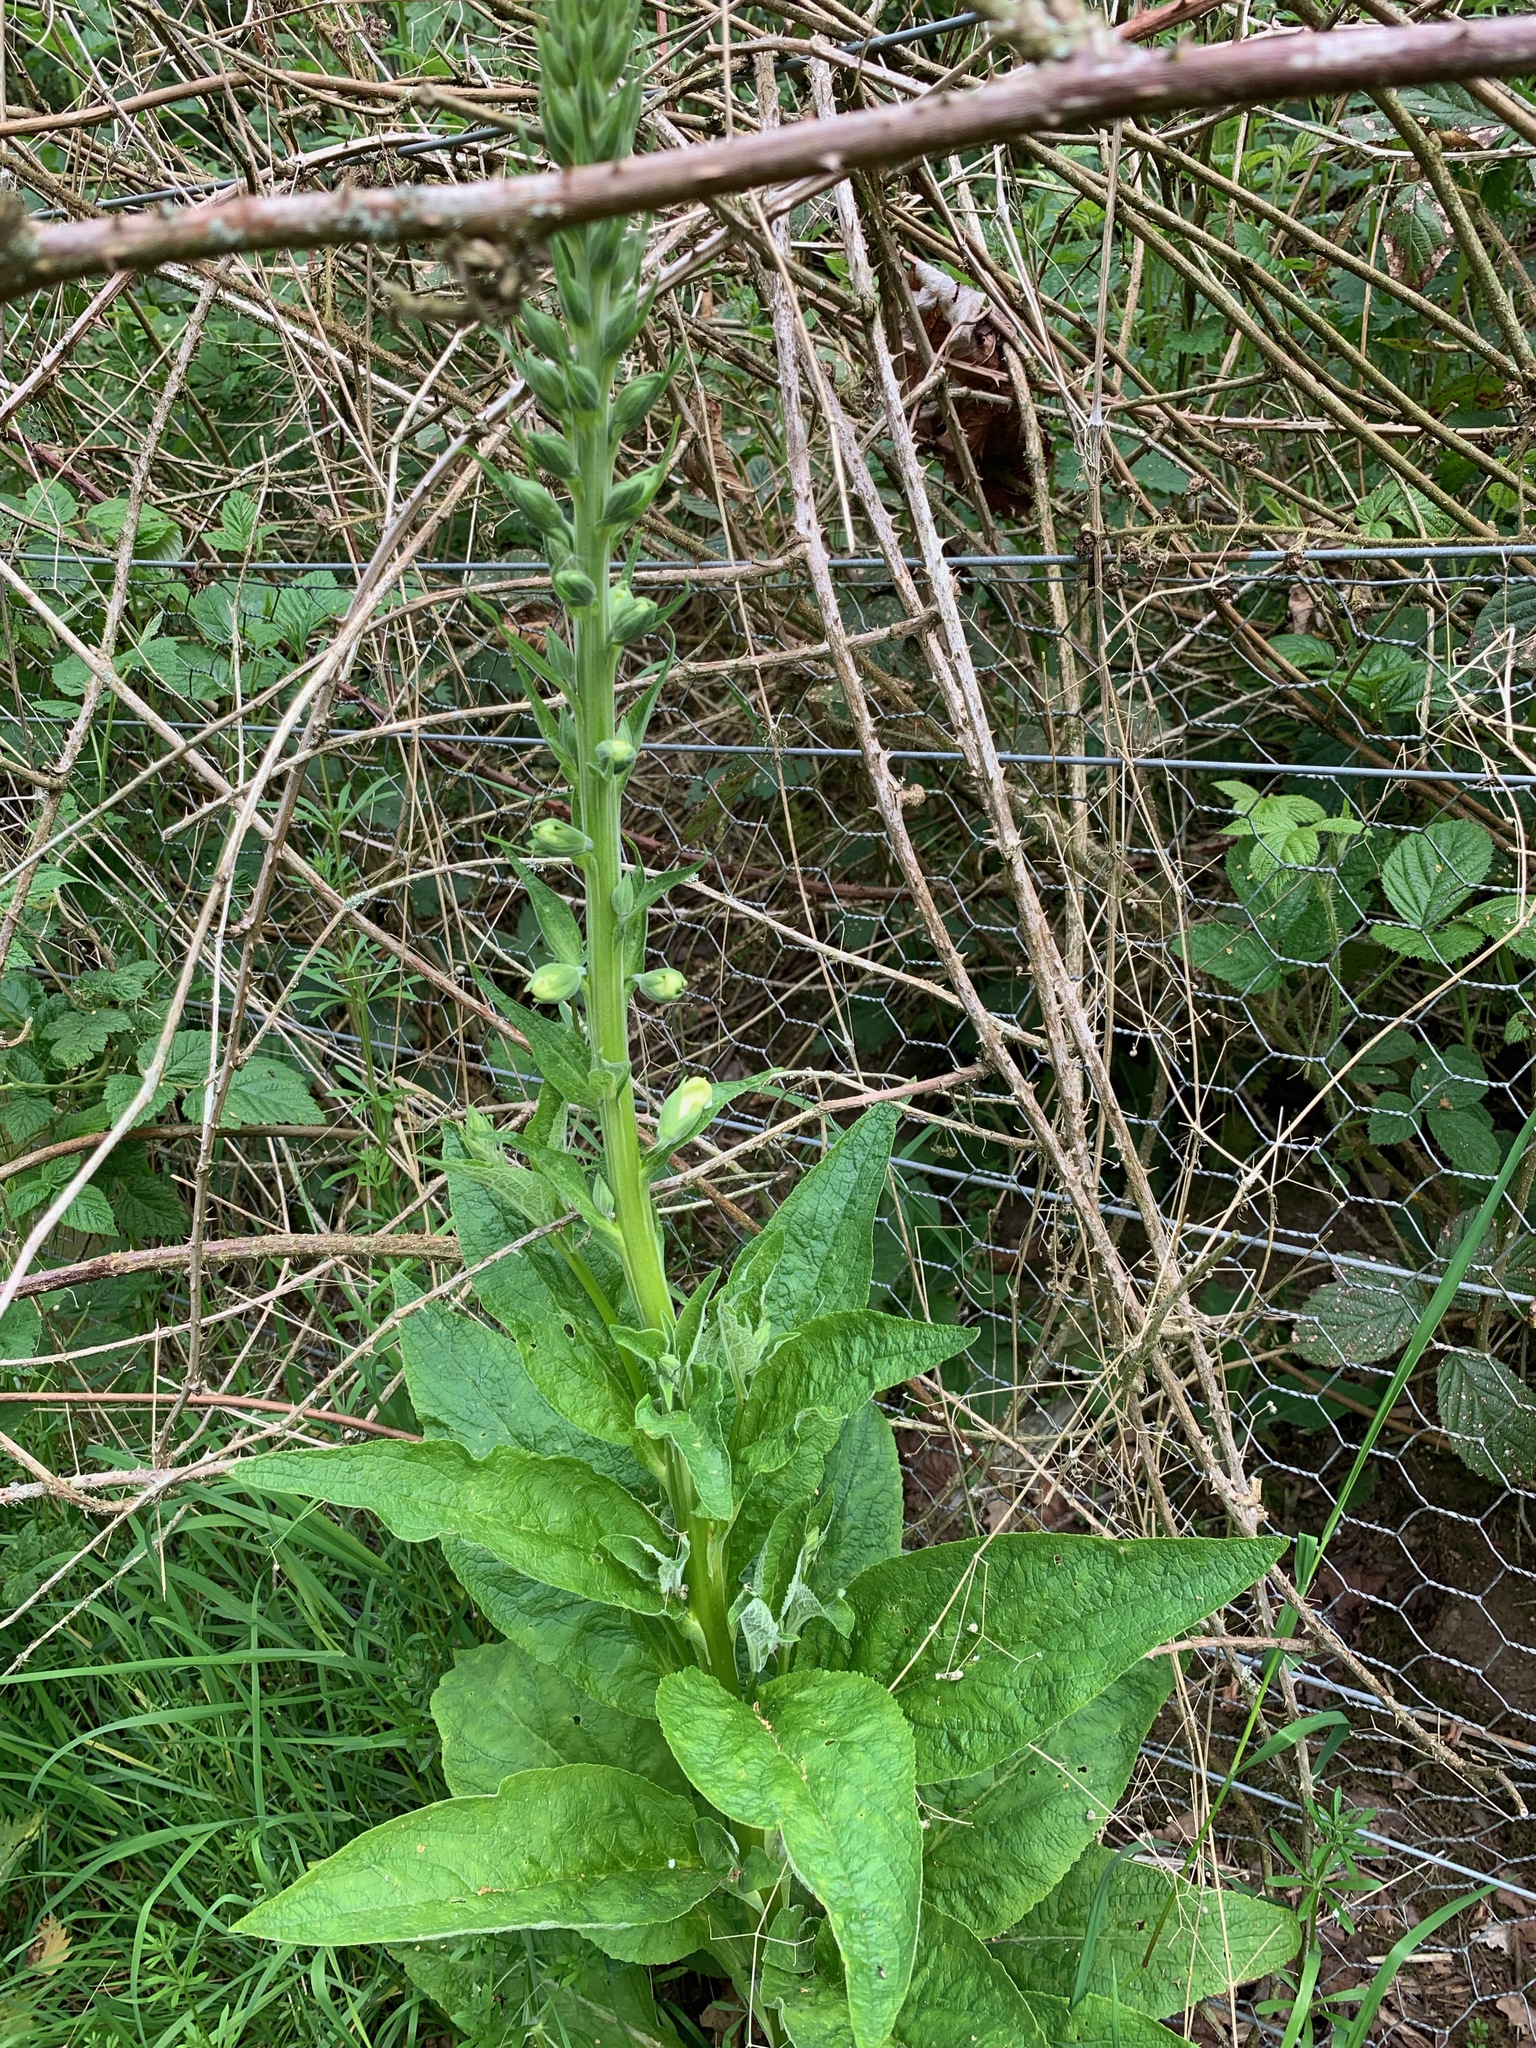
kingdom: Plantae
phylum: Tracheophyta
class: Magnoliopsida
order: Lamiales
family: Plantaginaceae
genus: Digitalis
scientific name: Digitalis purpurea
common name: Foxglove
